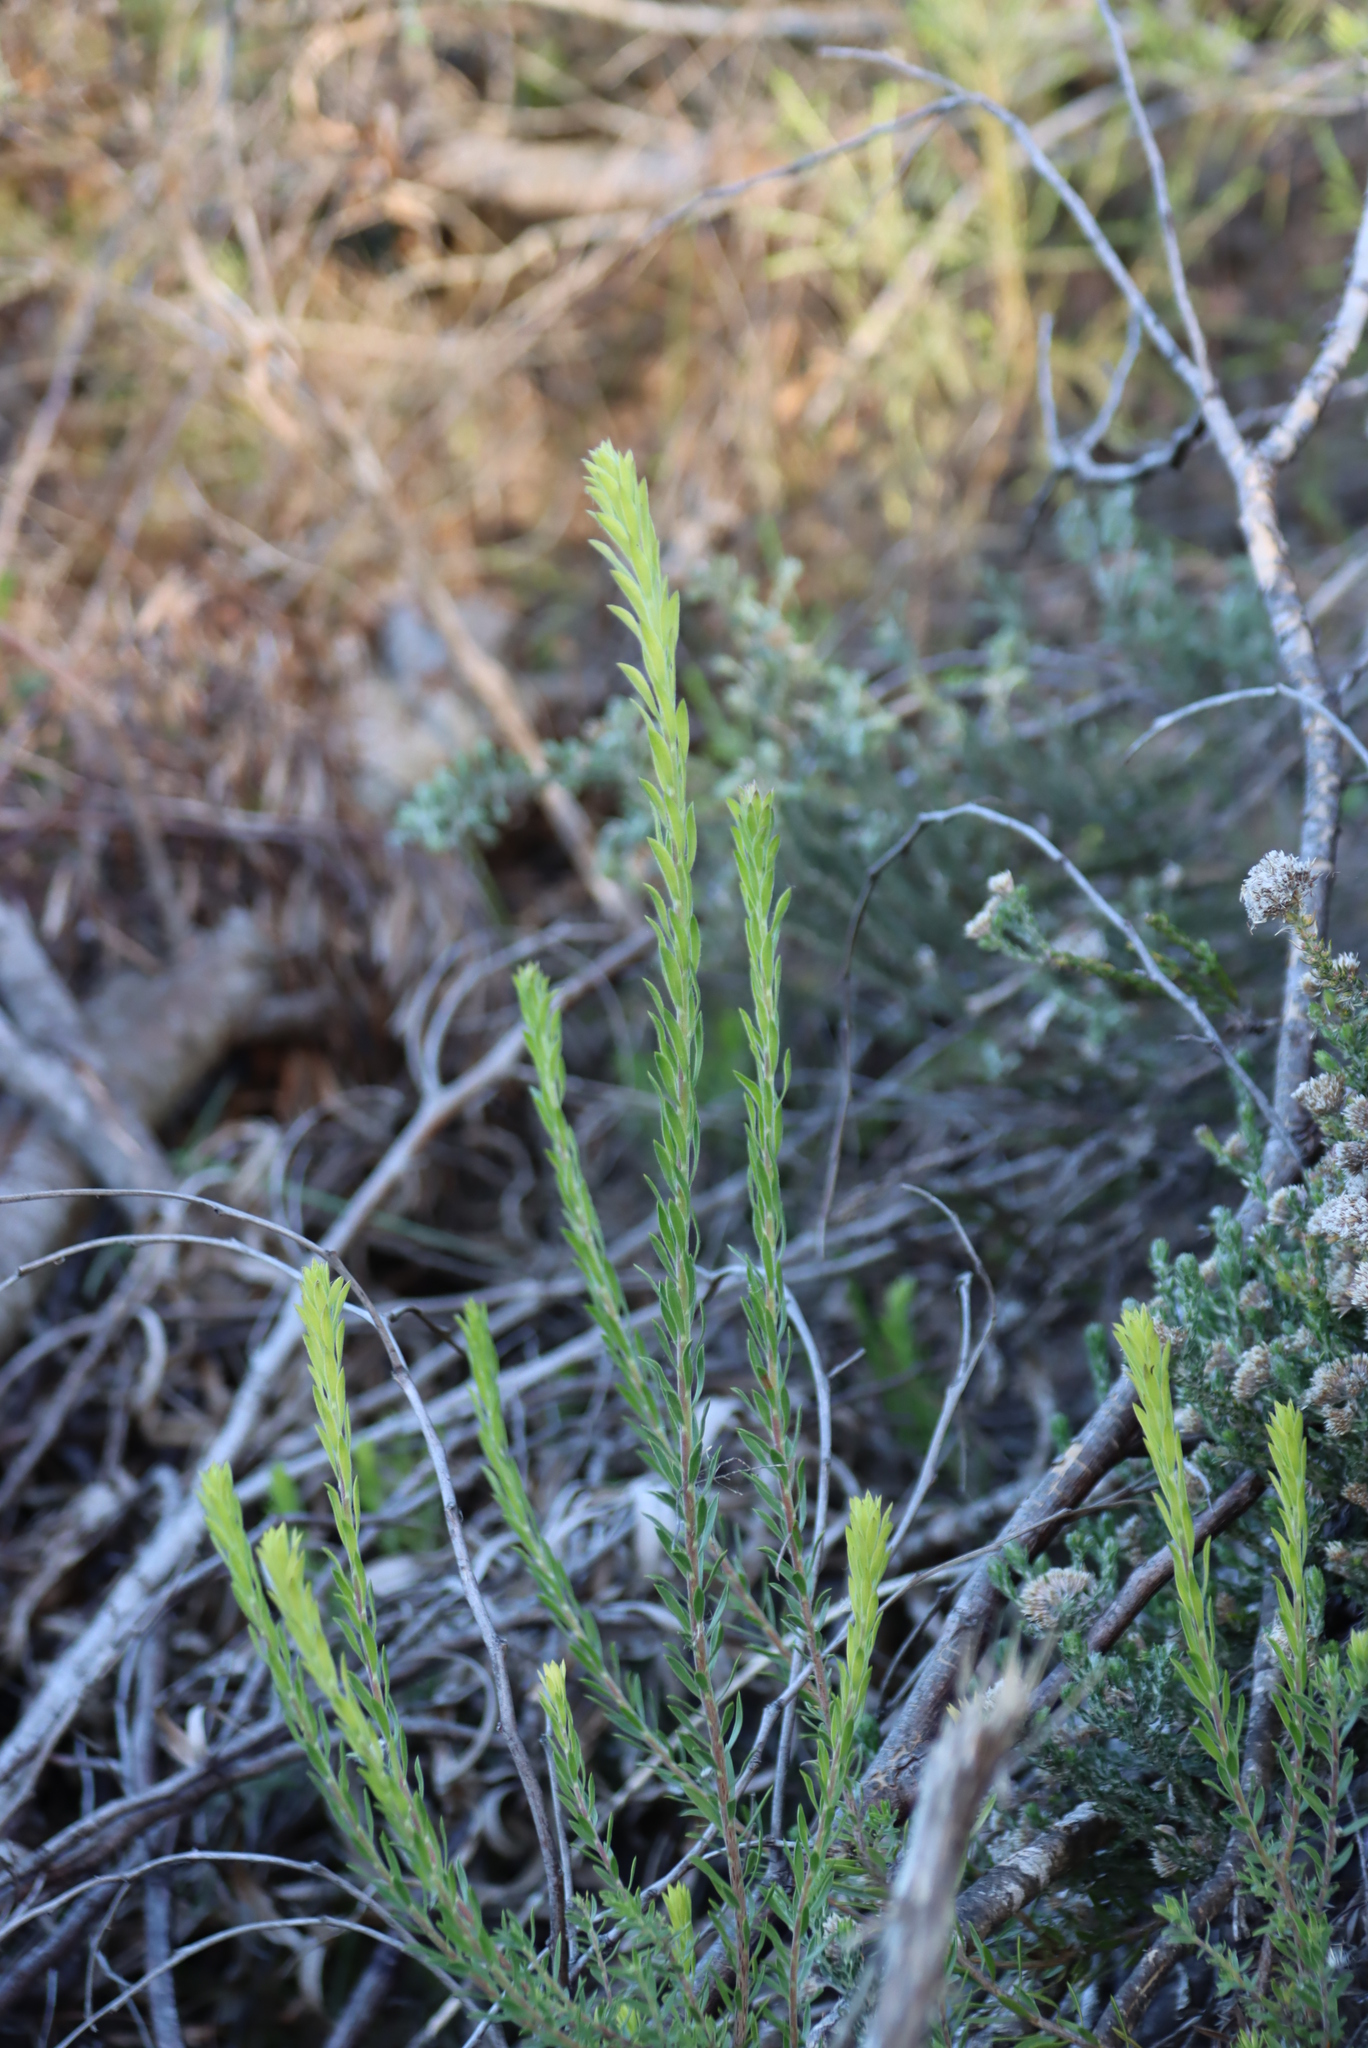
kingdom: Plantae
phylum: Tracheophyta
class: Magnoliopsida
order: Asterales
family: Asteraceae
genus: Oedera
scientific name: Oedera calycina
